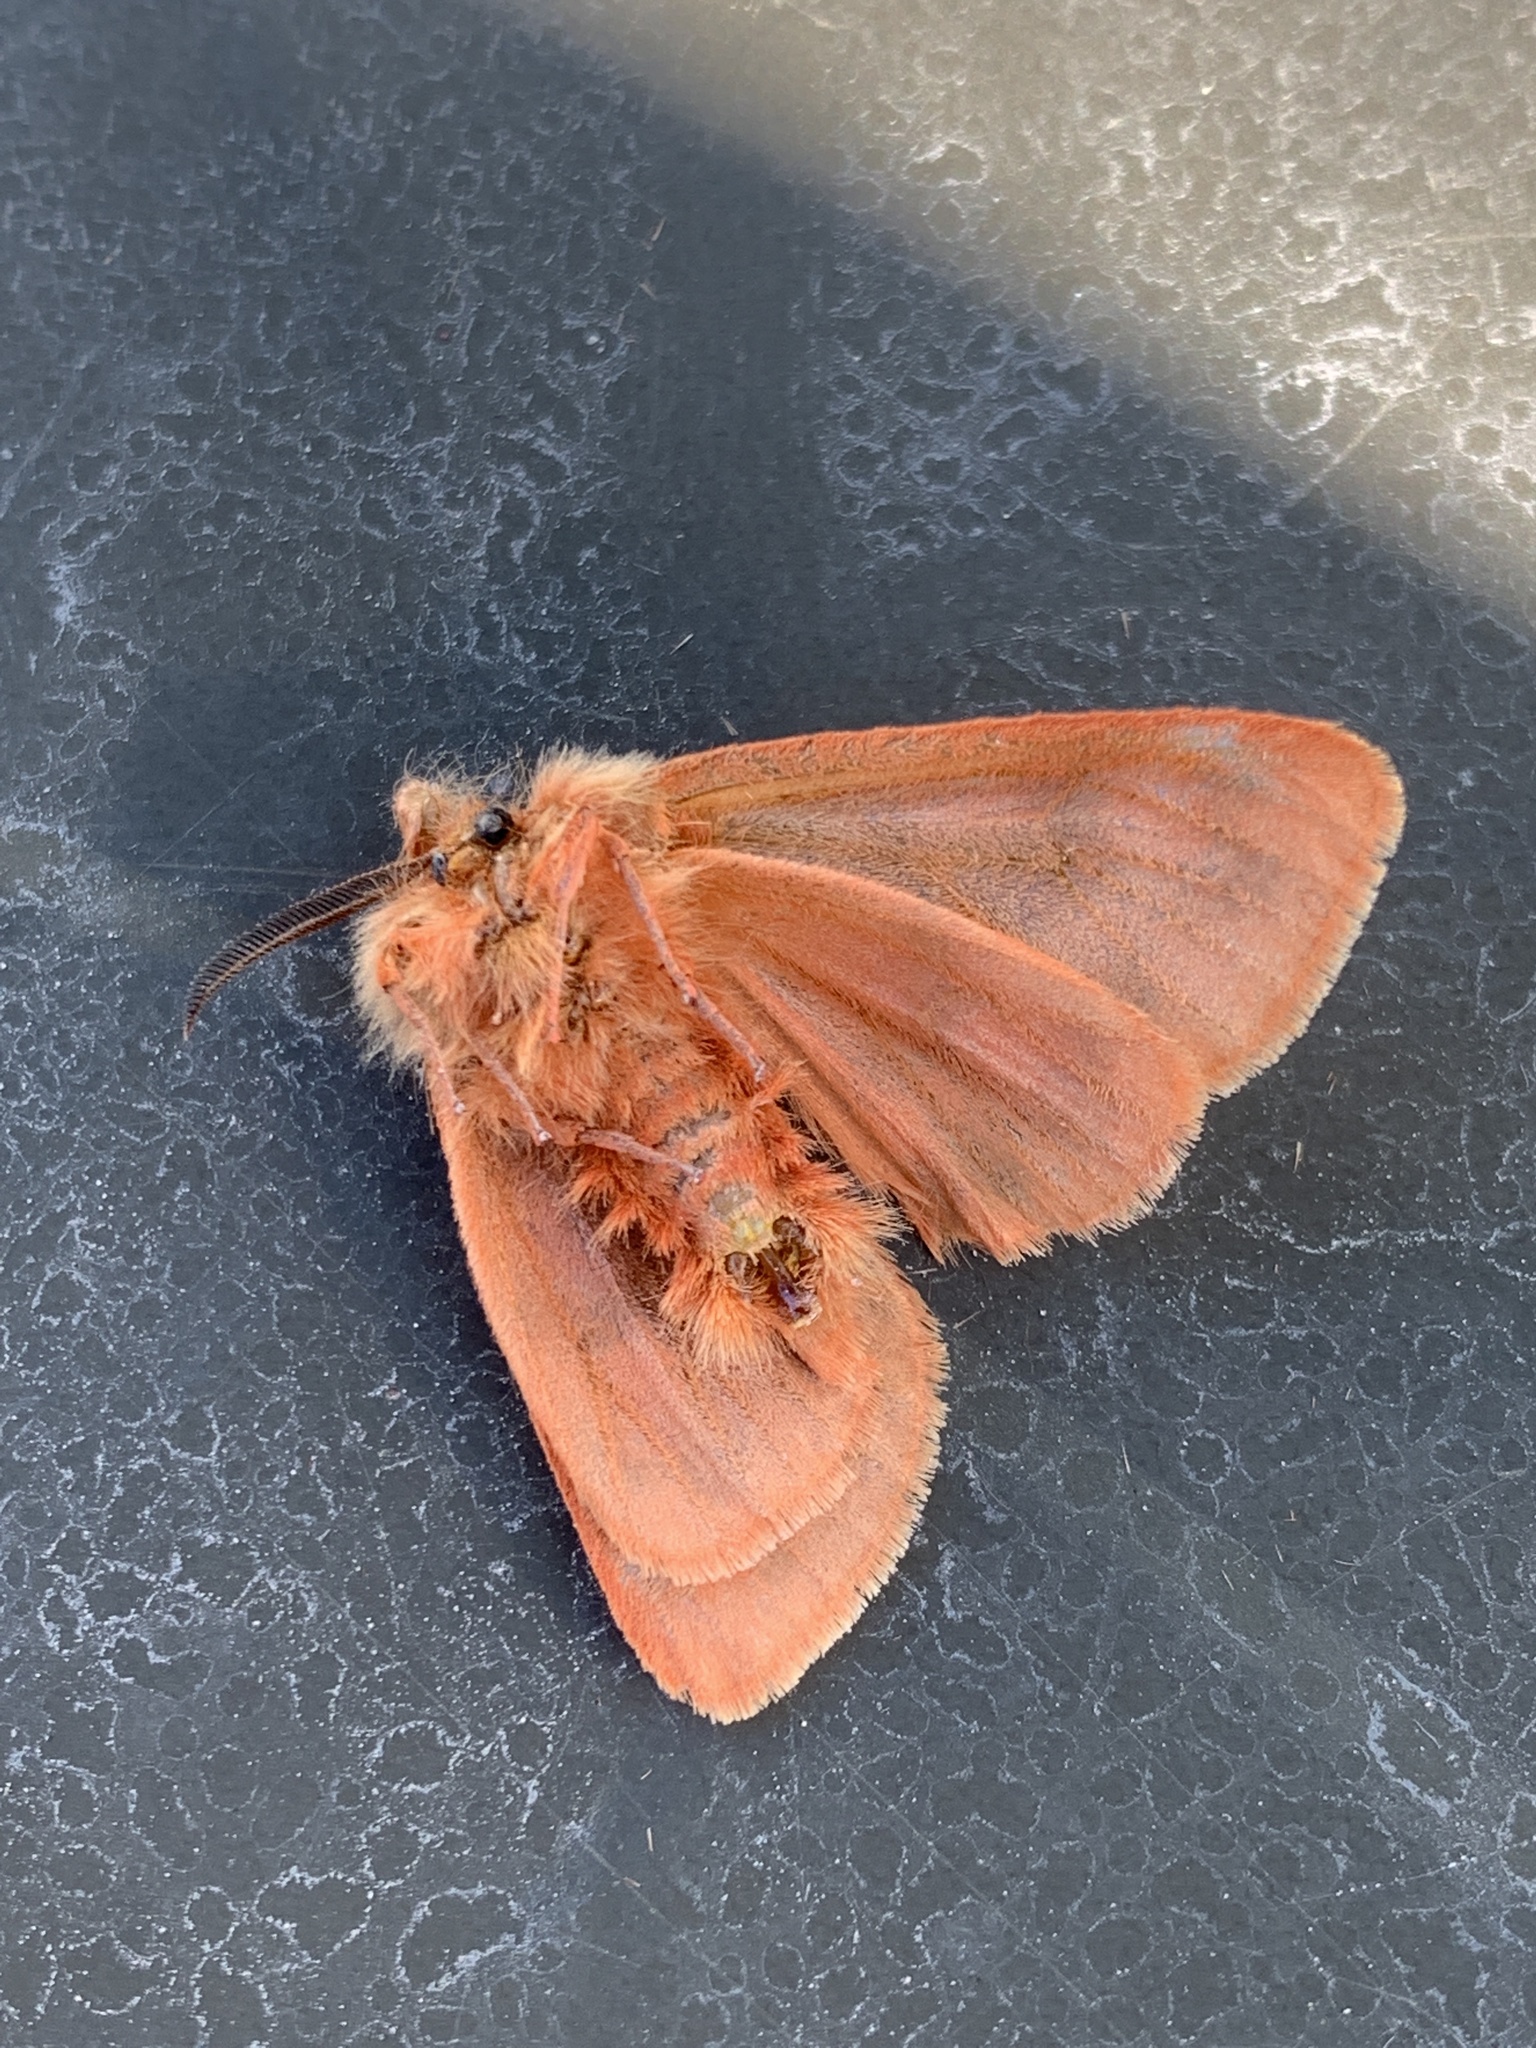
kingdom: Animalia
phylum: Arthropoda
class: Insecta
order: Lepidoptera
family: Erebidae
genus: Chelis
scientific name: Chelis beanii
